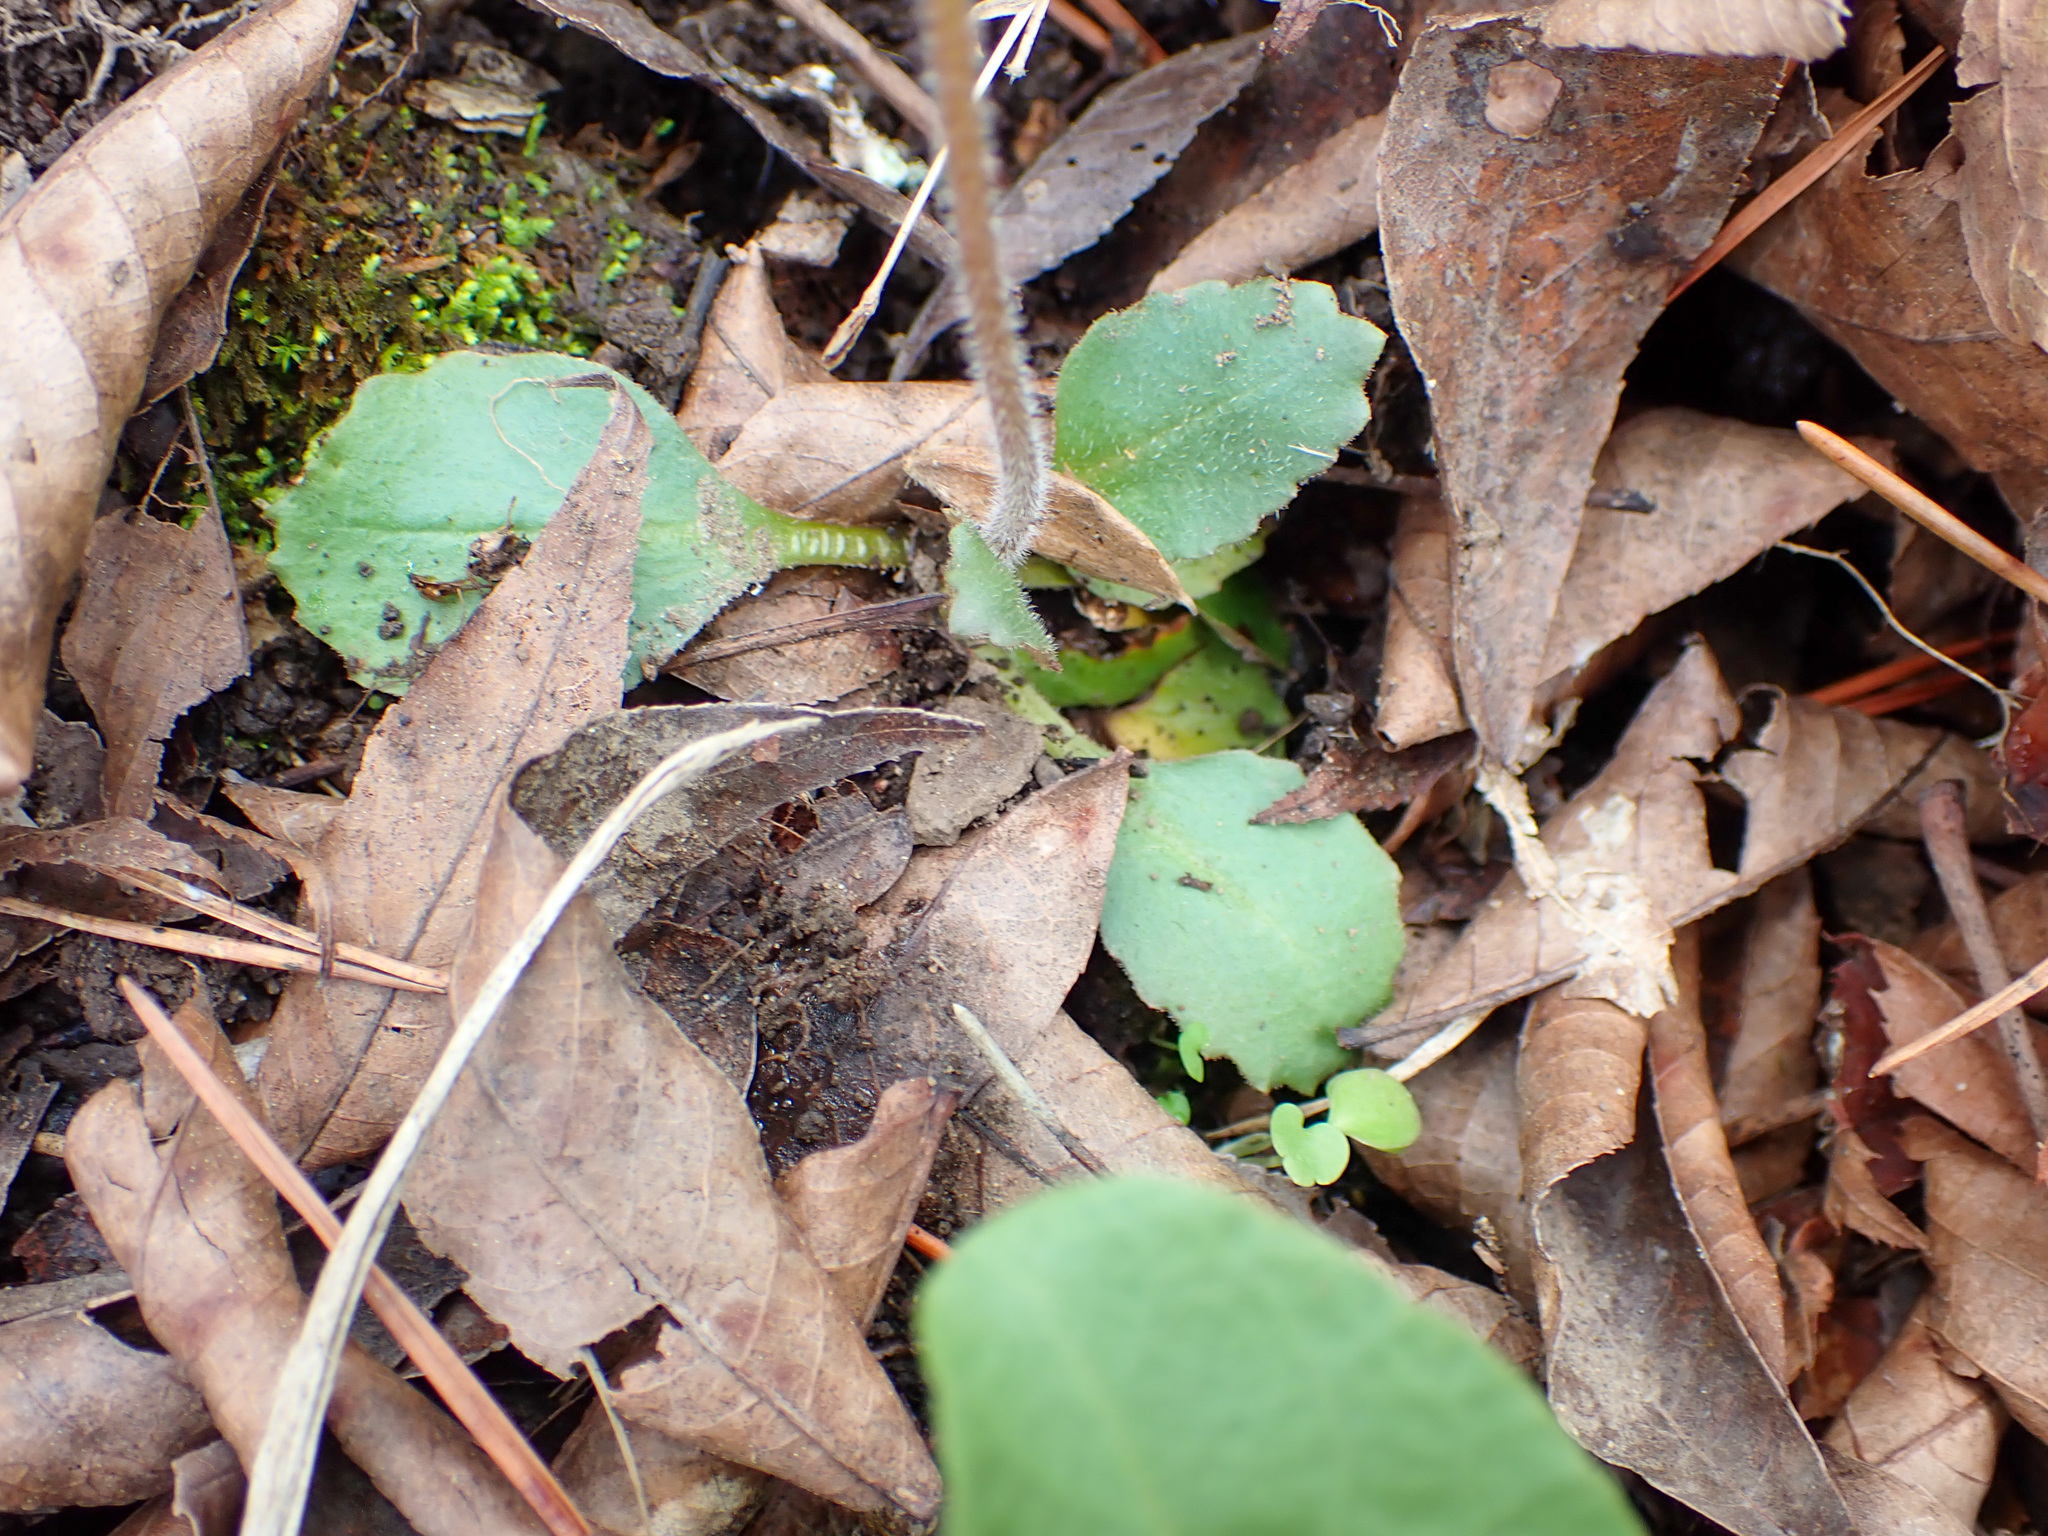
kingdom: Plantae
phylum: Tracheophyta
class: Magnoliopsida
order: Saxifragales
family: Saxifragaceae
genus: Micranthes
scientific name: Micranthes virginiensis
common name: Early saxifrage
